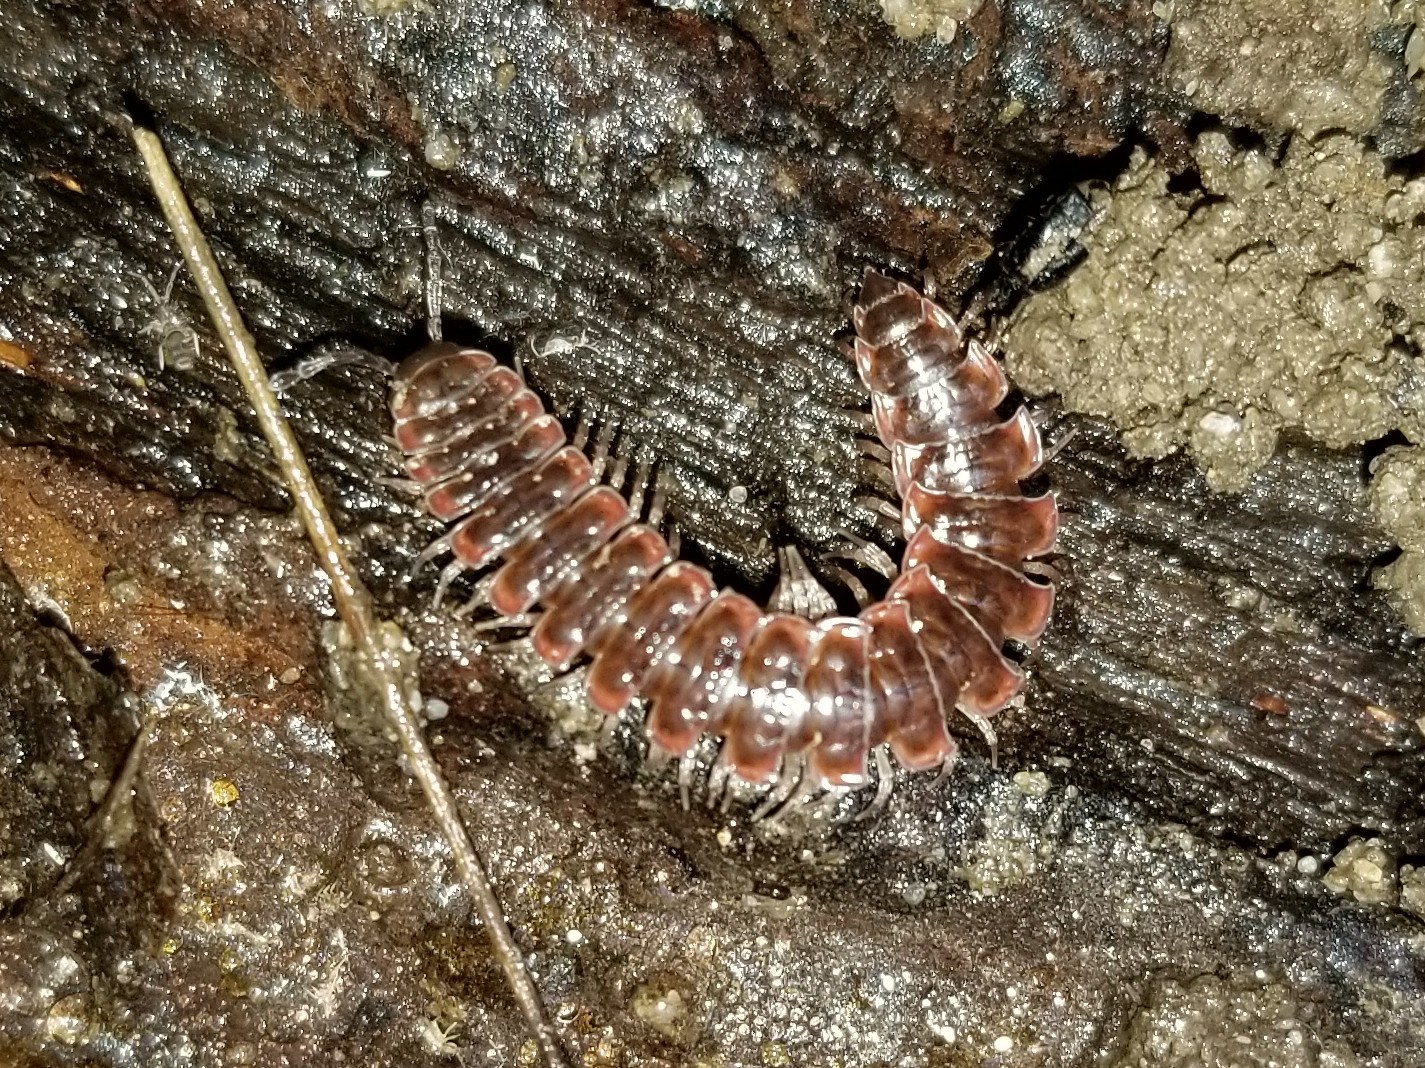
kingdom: Animalia
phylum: Arthropoda
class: Diplopoda
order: Polydesmida
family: Polydesmidae
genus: Pseudopolydesmus
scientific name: Pseudopolydesmus serratus
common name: Common pink flat-back millipede
